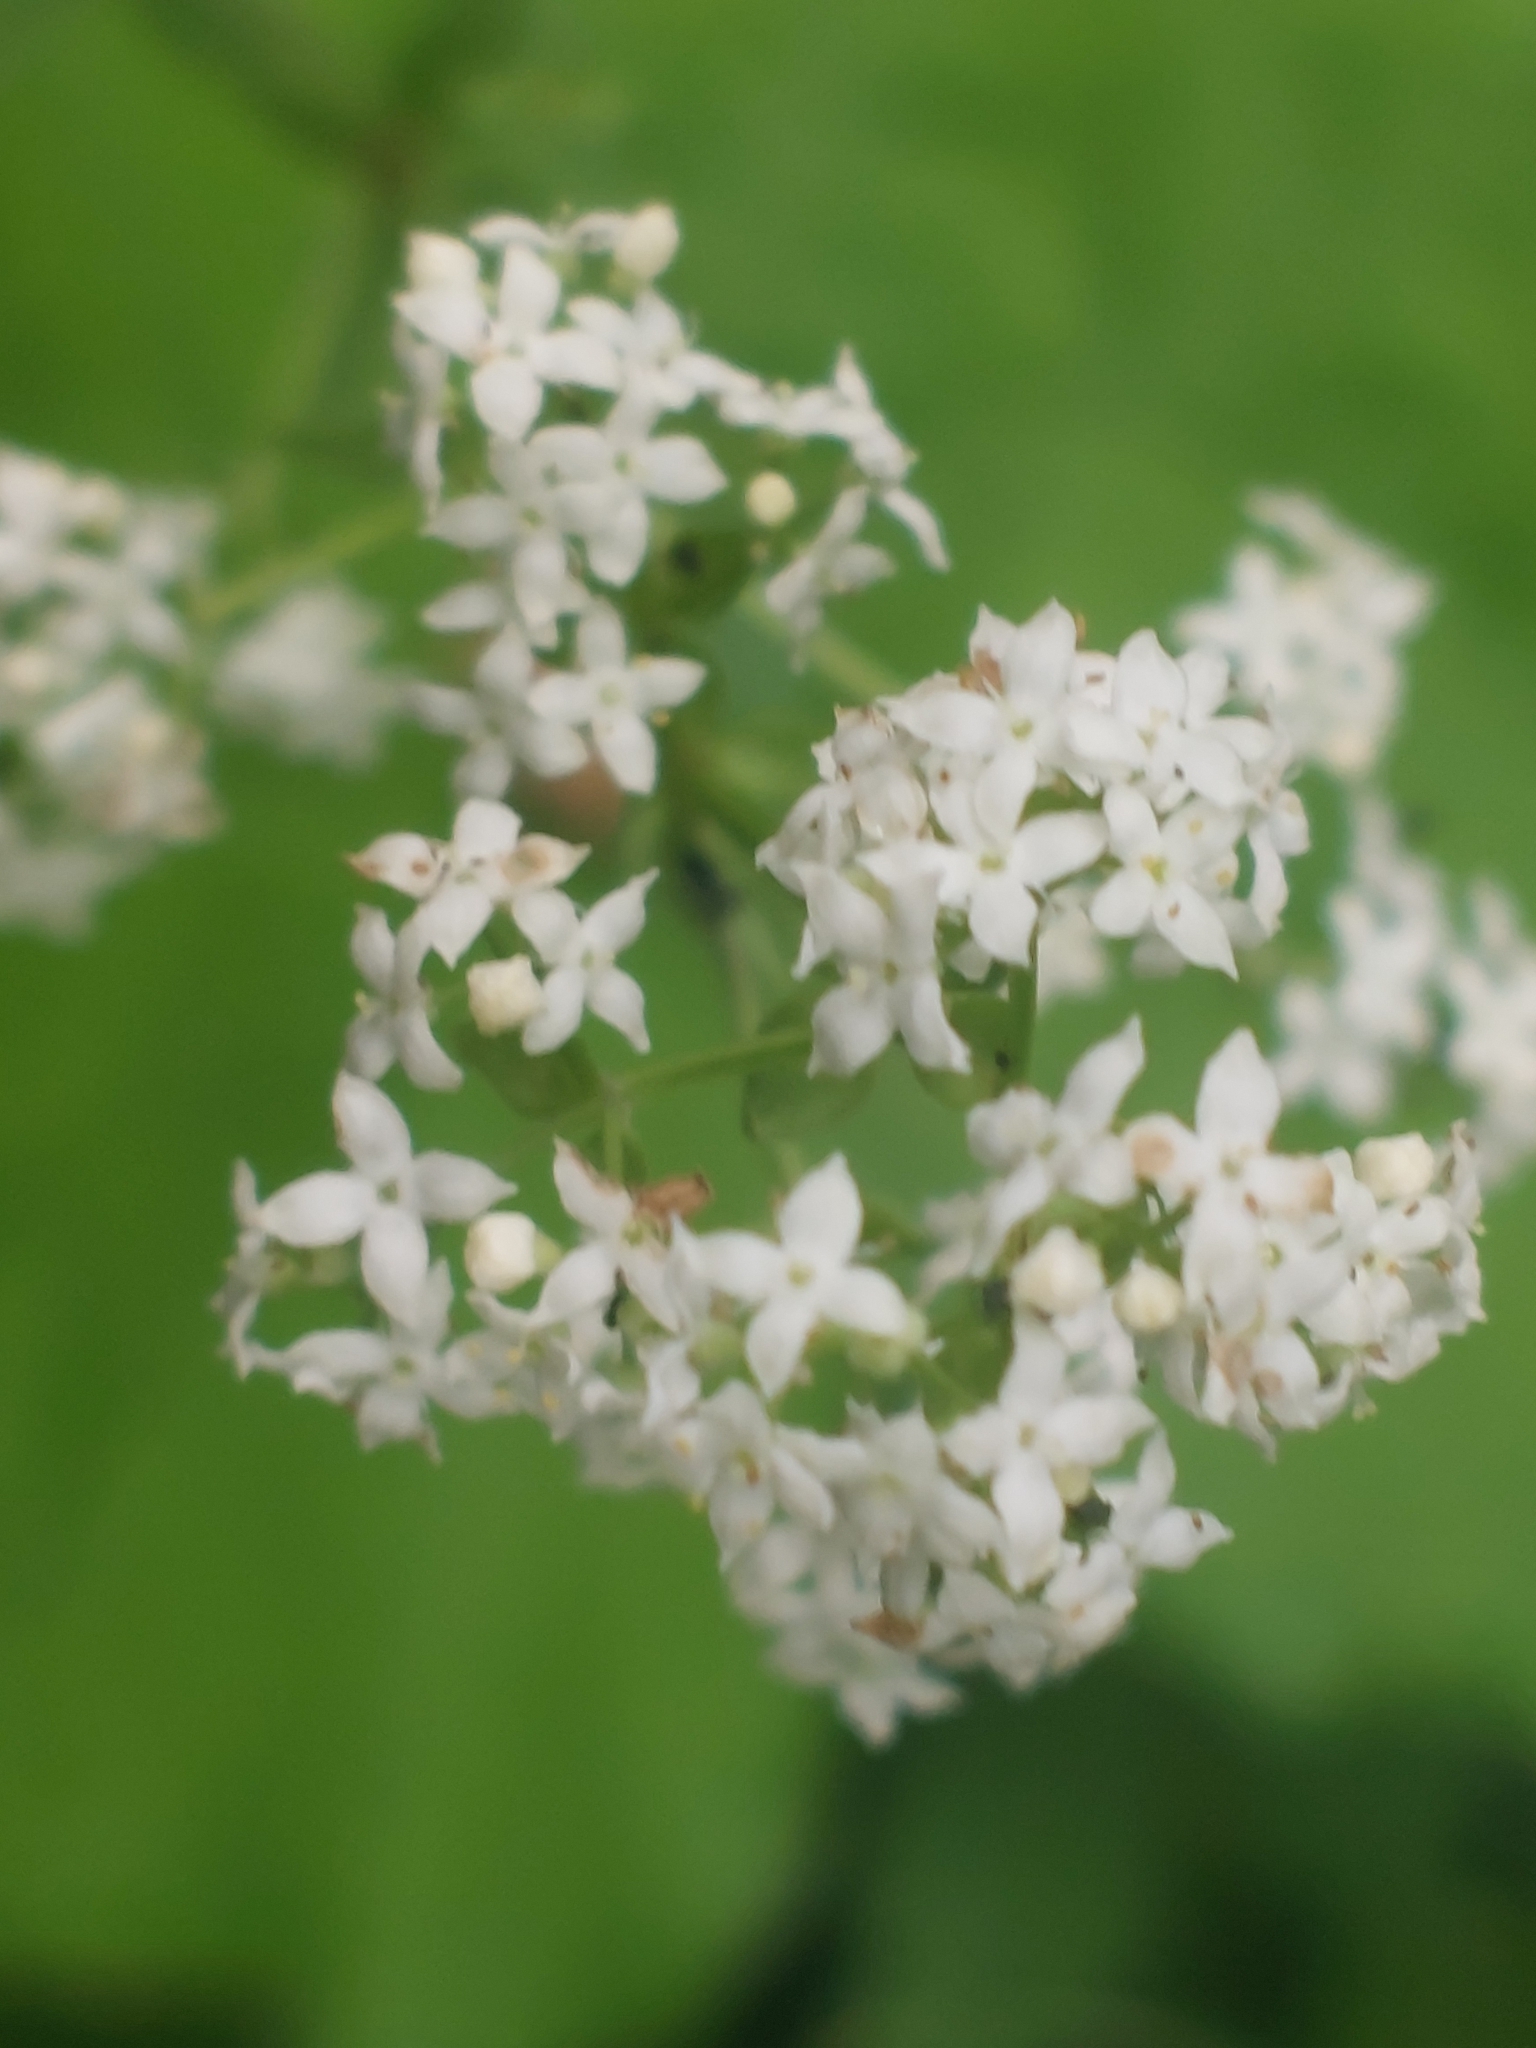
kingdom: Plantae
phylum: Tracheophyta
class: Magnoliopsida
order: Gentianales
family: Rubiaceae
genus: Galium
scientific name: Galium boreale
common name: Northern bedstraw
